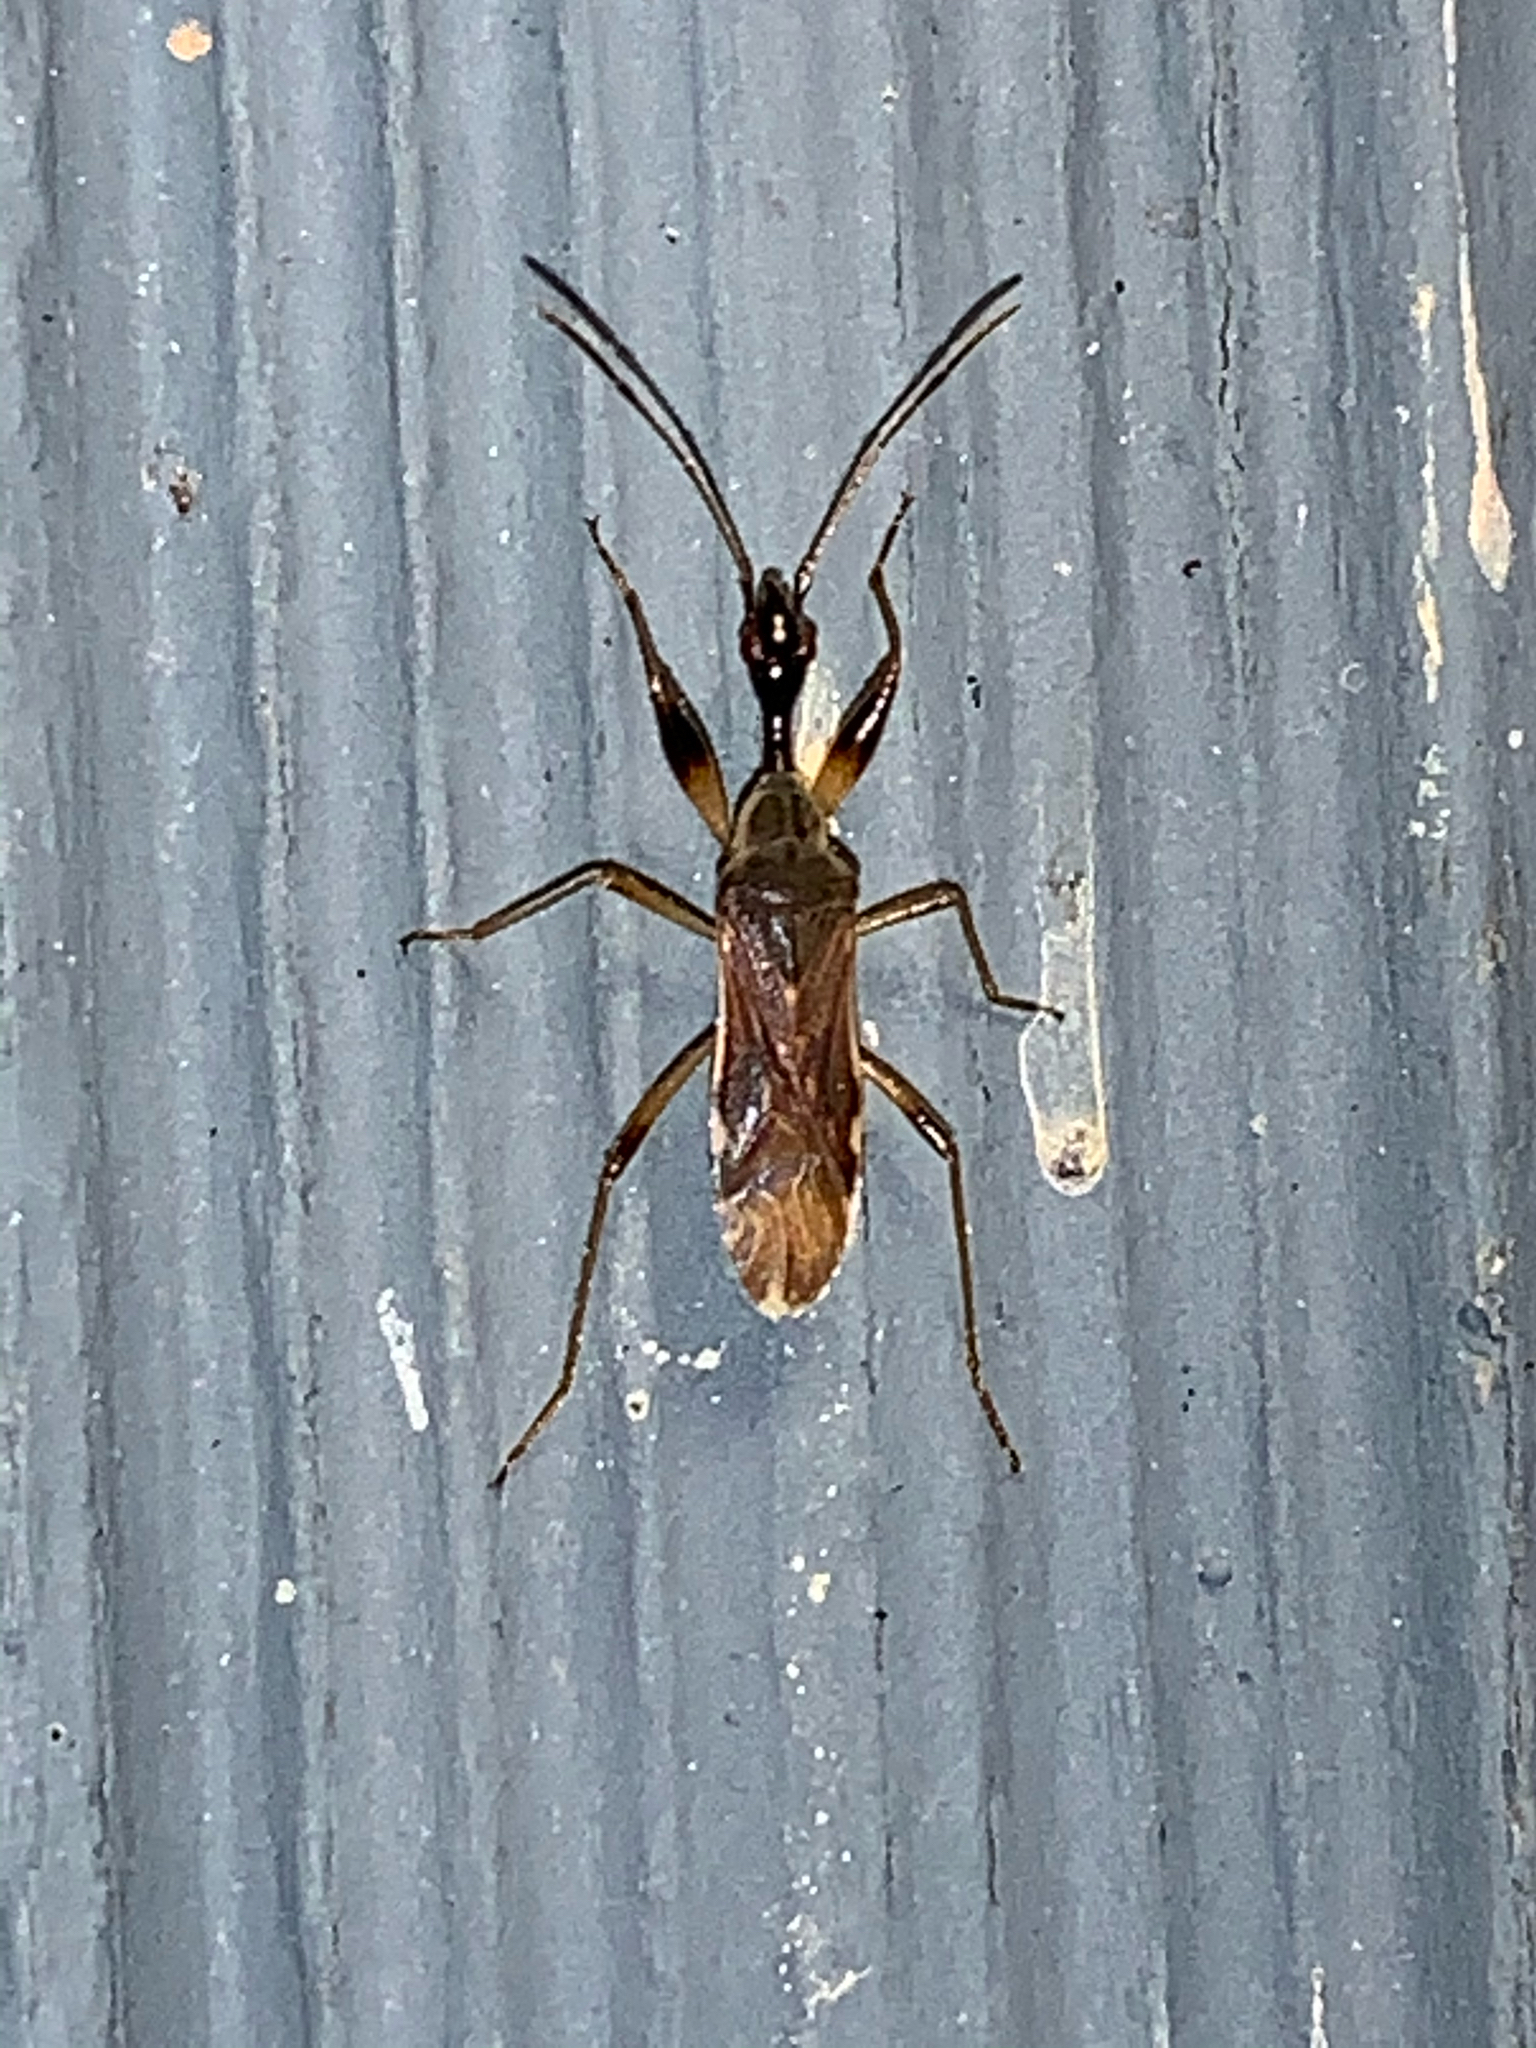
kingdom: Animalia
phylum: Arthropoda
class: Insecta
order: Hemiptera
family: Rhyparochromidae
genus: Myodocha
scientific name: Myodocha serripes
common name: Long-necked seed bug
